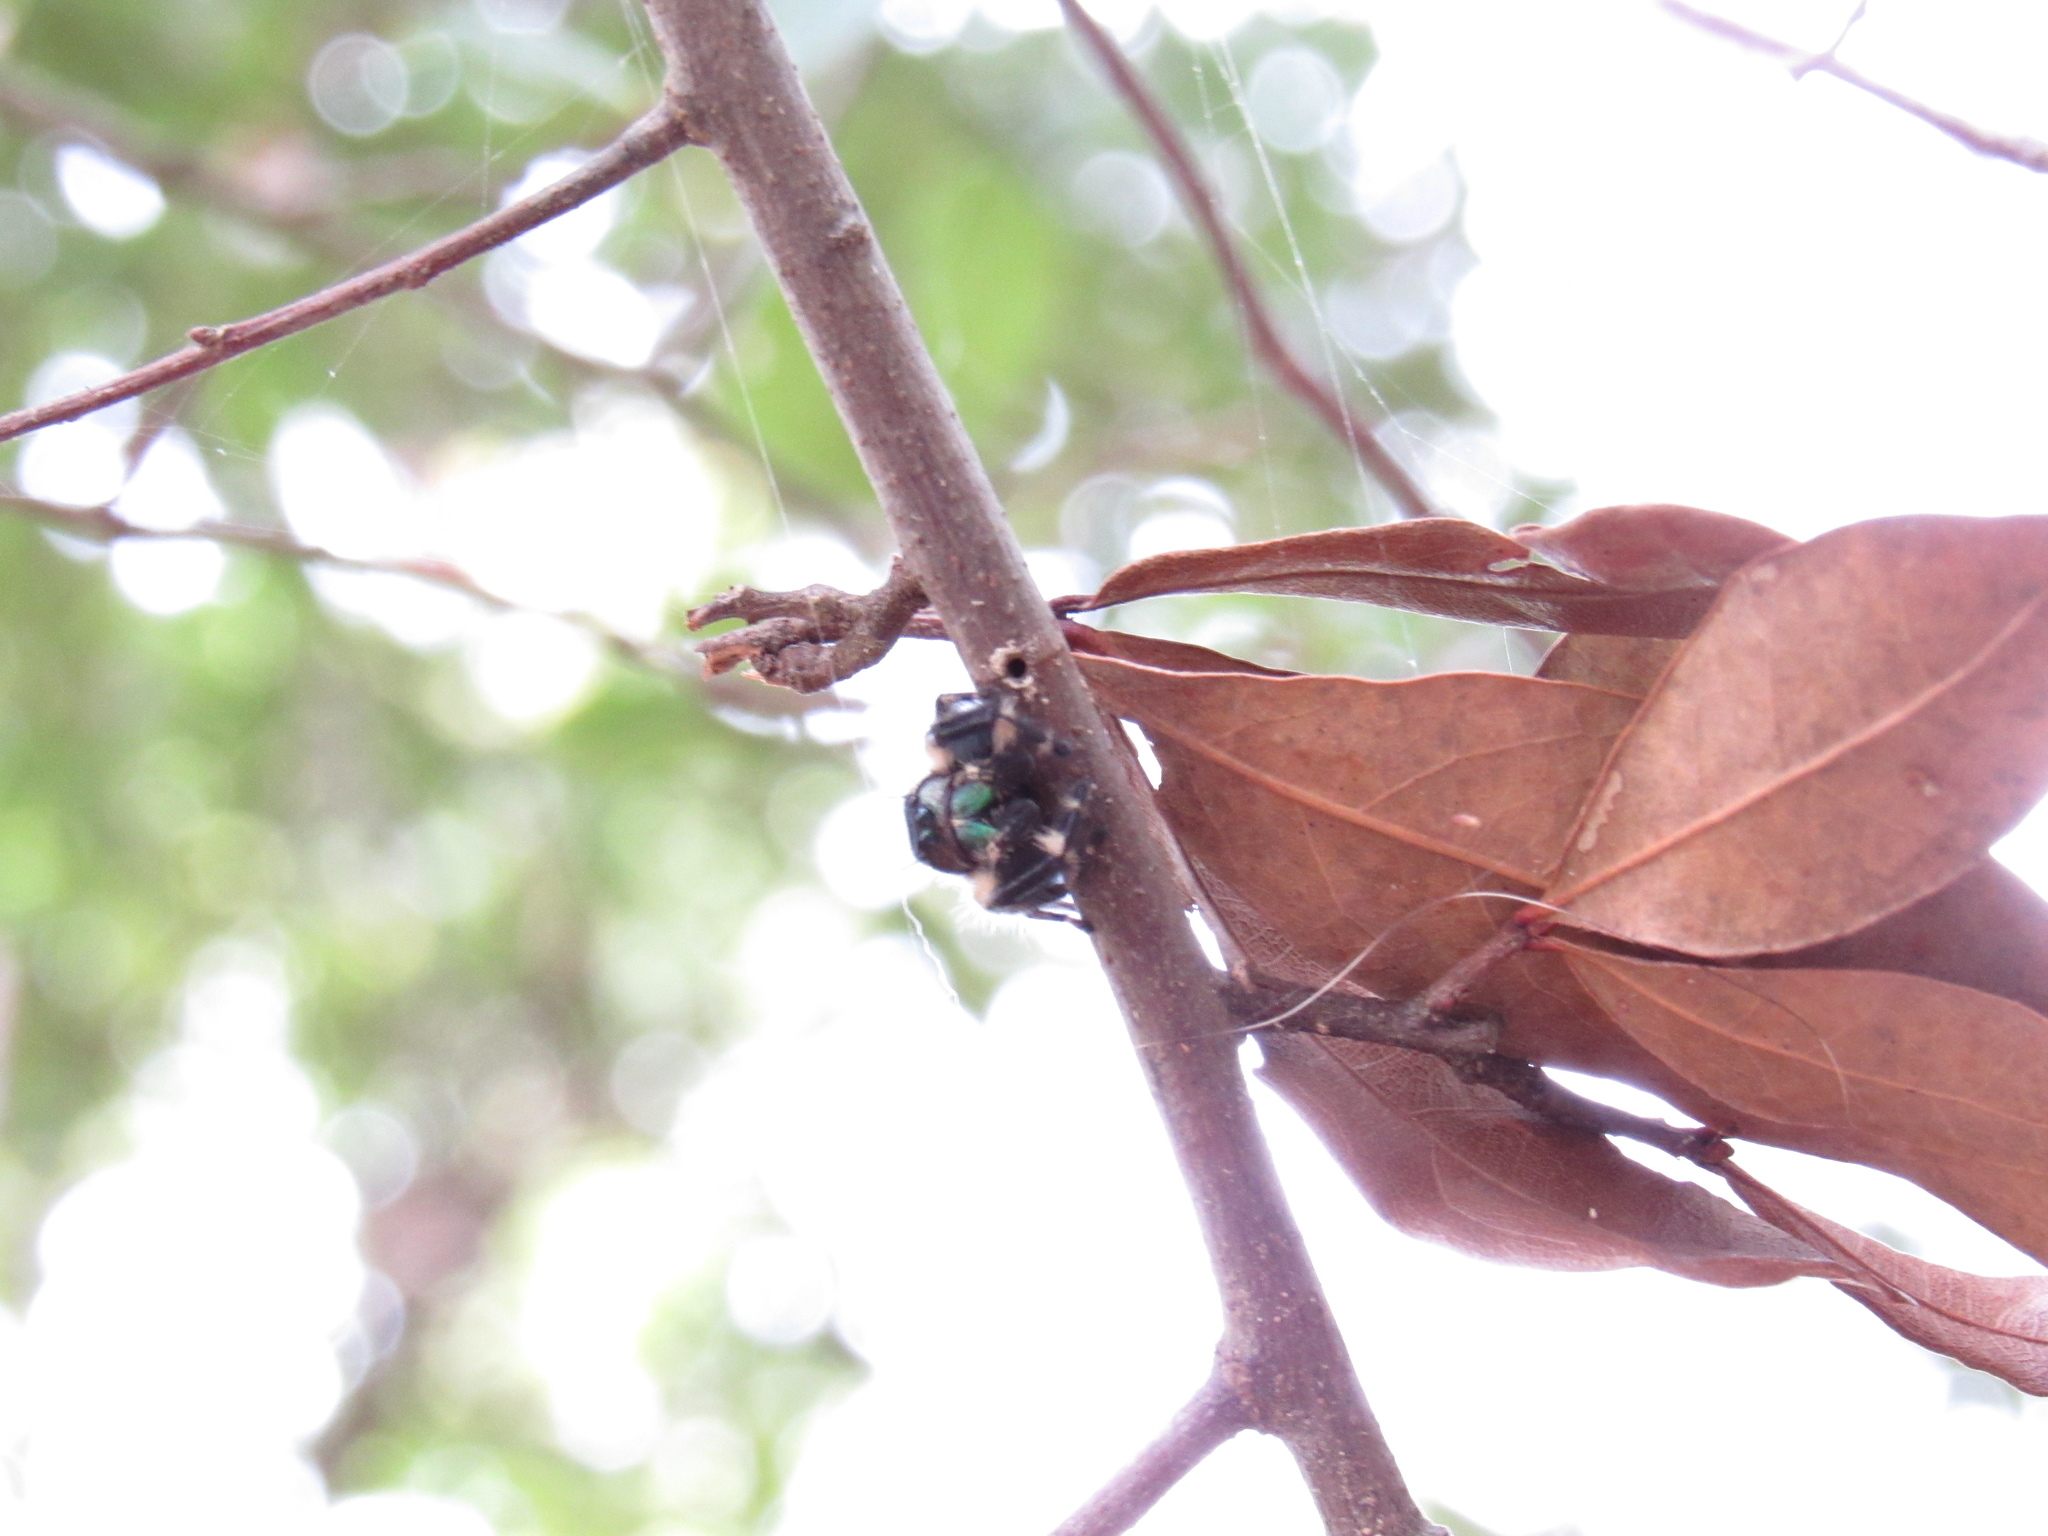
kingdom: Animalia
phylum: Arthropoda
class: Arachnida
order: Araneae
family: Salticidae
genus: Phidippus
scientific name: Phidippus otiosus
